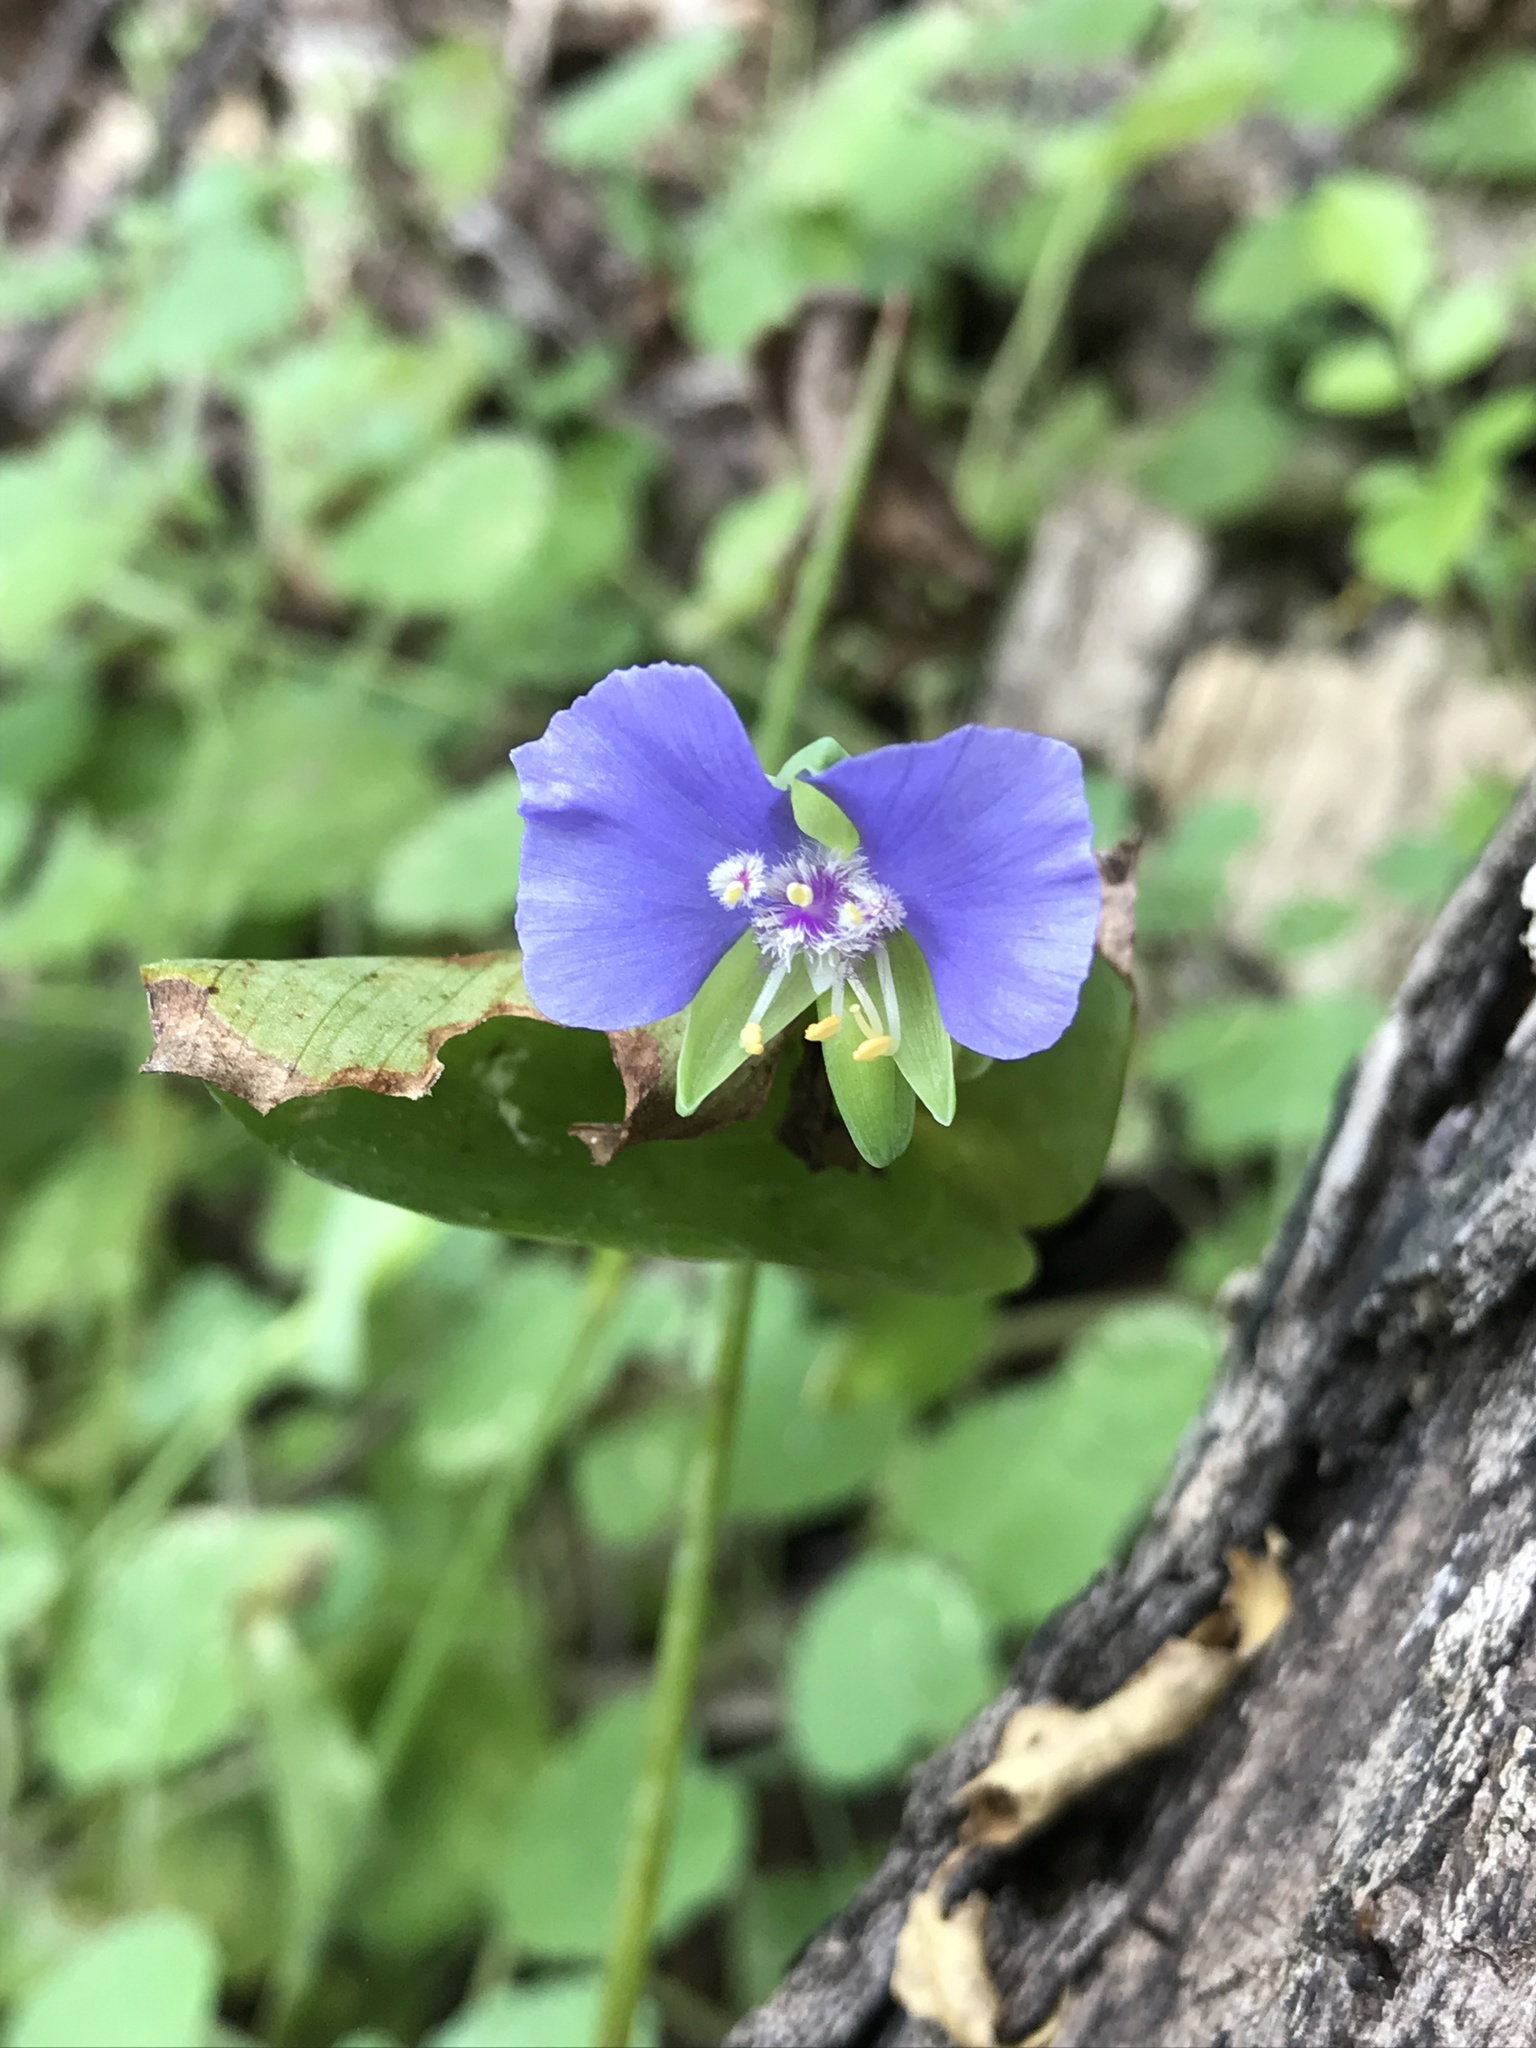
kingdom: Plantae
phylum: Tracheophyta
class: Liliopsida
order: Commelinales
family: Commelinaceae
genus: Tinantia
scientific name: Tinantia anomala
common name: False dayflower
